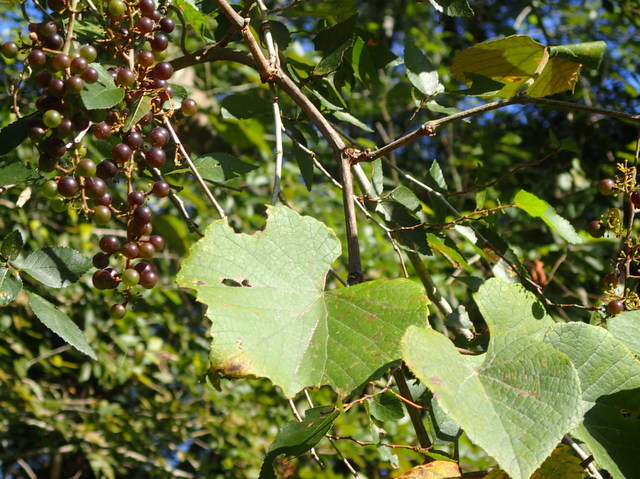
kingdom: Plantae
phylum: Tracheophyta
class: Magnoliopsida
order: Vitales
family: Vitaceae
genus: Vitis
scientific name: Vitis vulpina
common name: Frost grape
